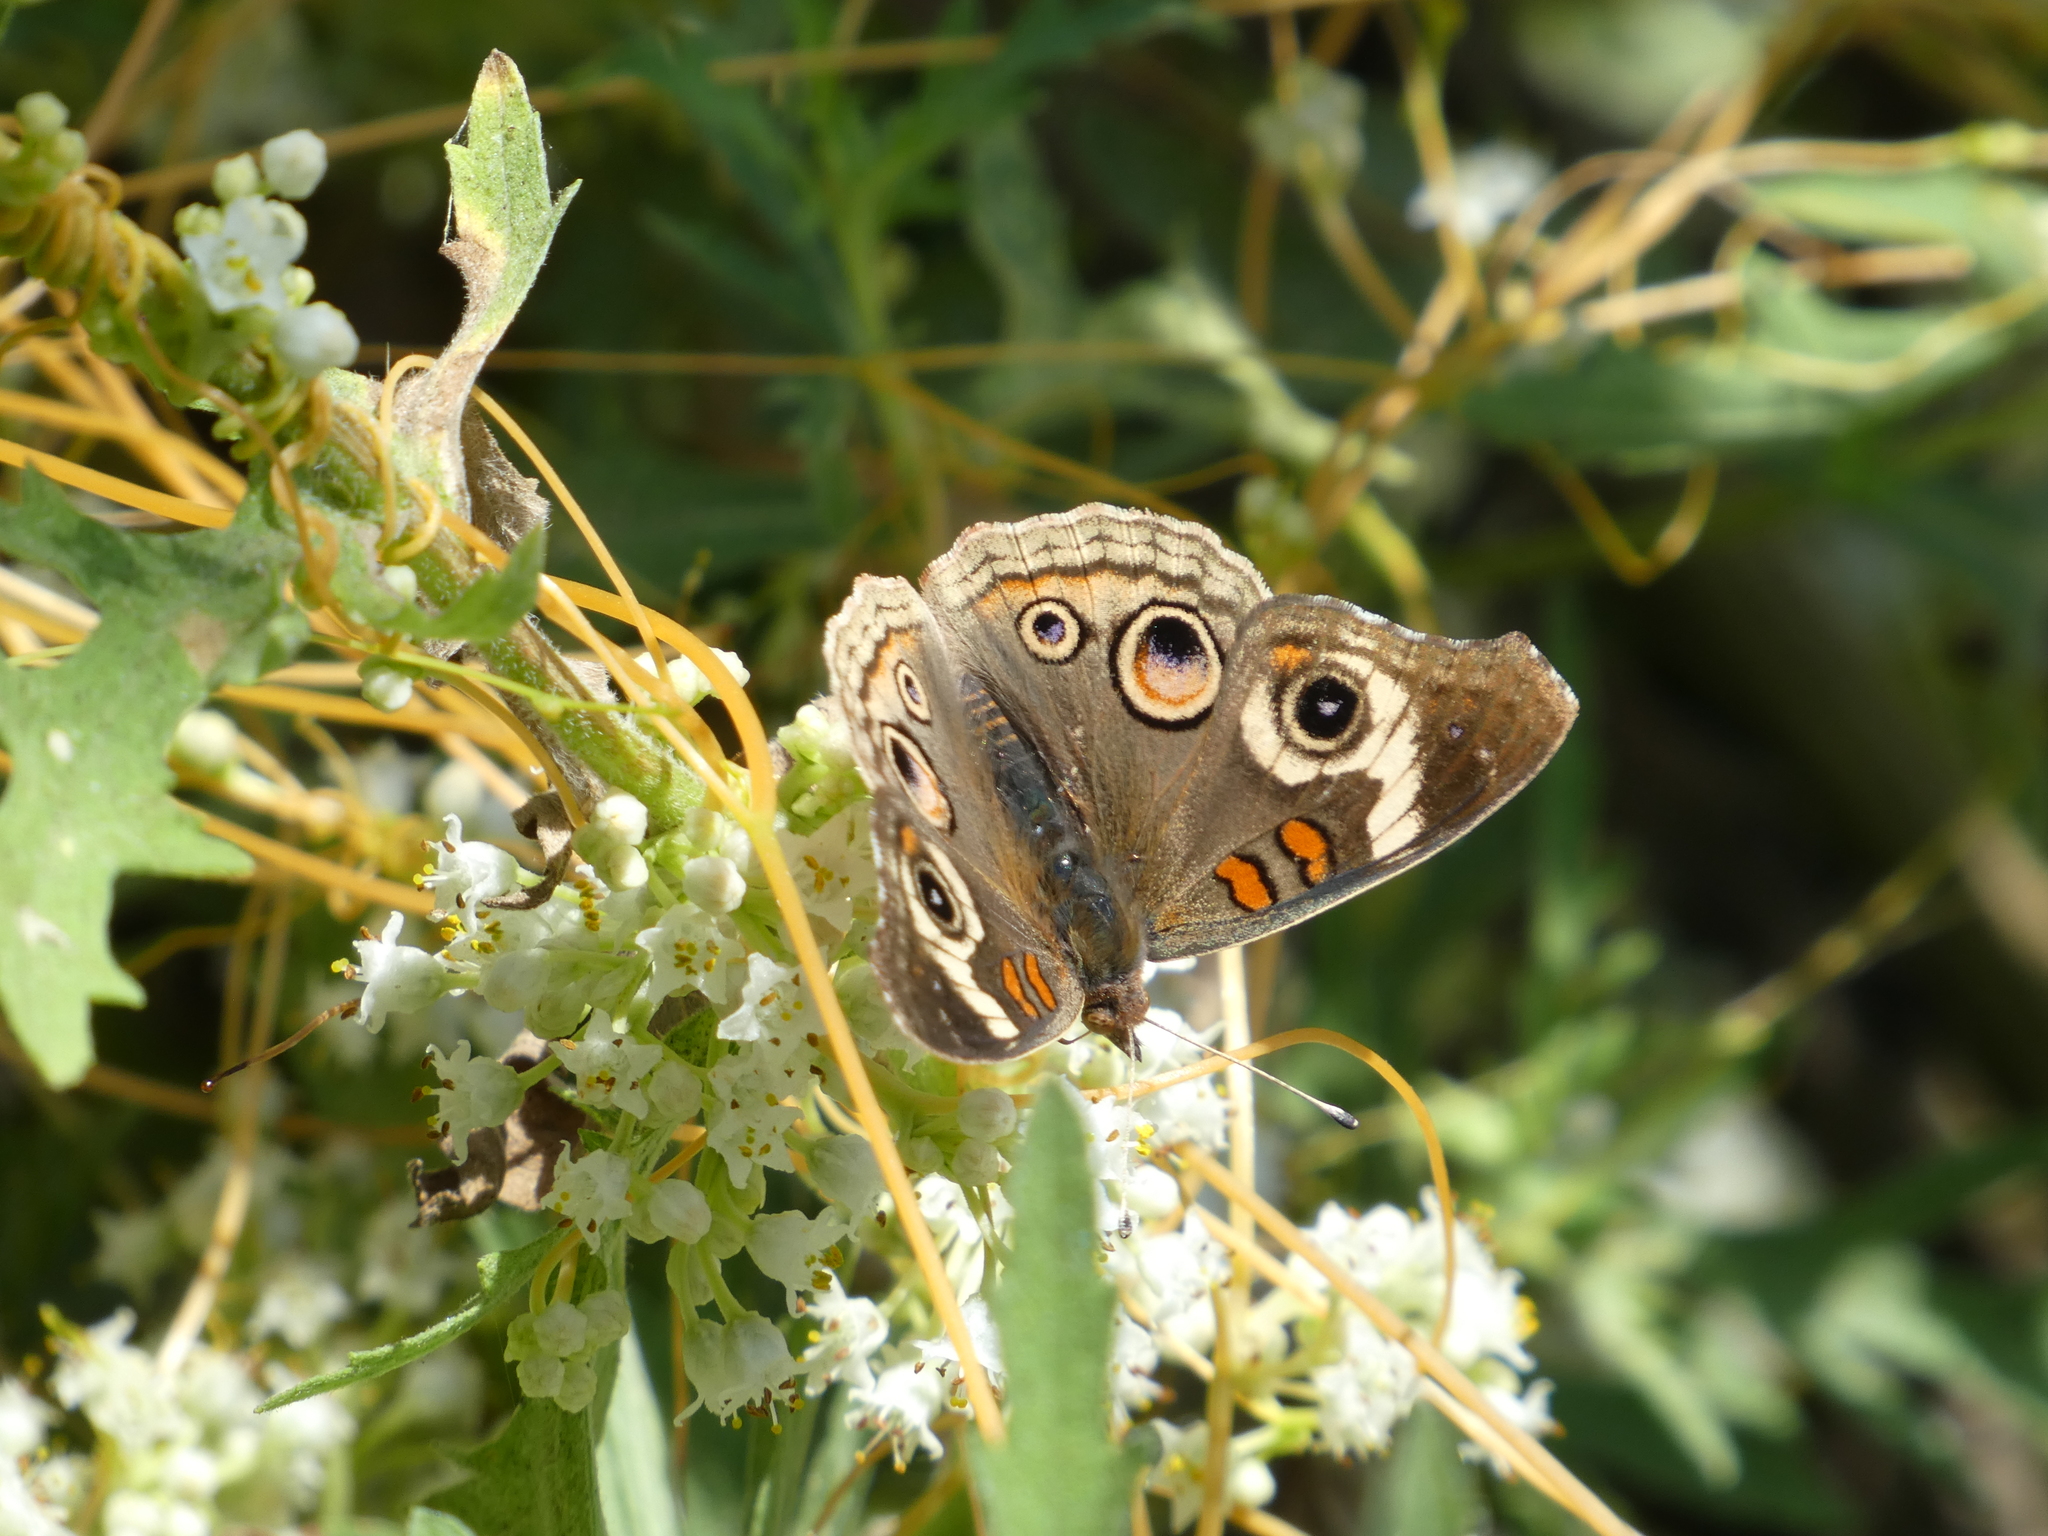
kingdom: Animalia
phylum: Arthropoda
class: Insecta
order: Lepidoptera
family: Nymphalidae
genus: Junonia
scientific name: Junonia grisea
